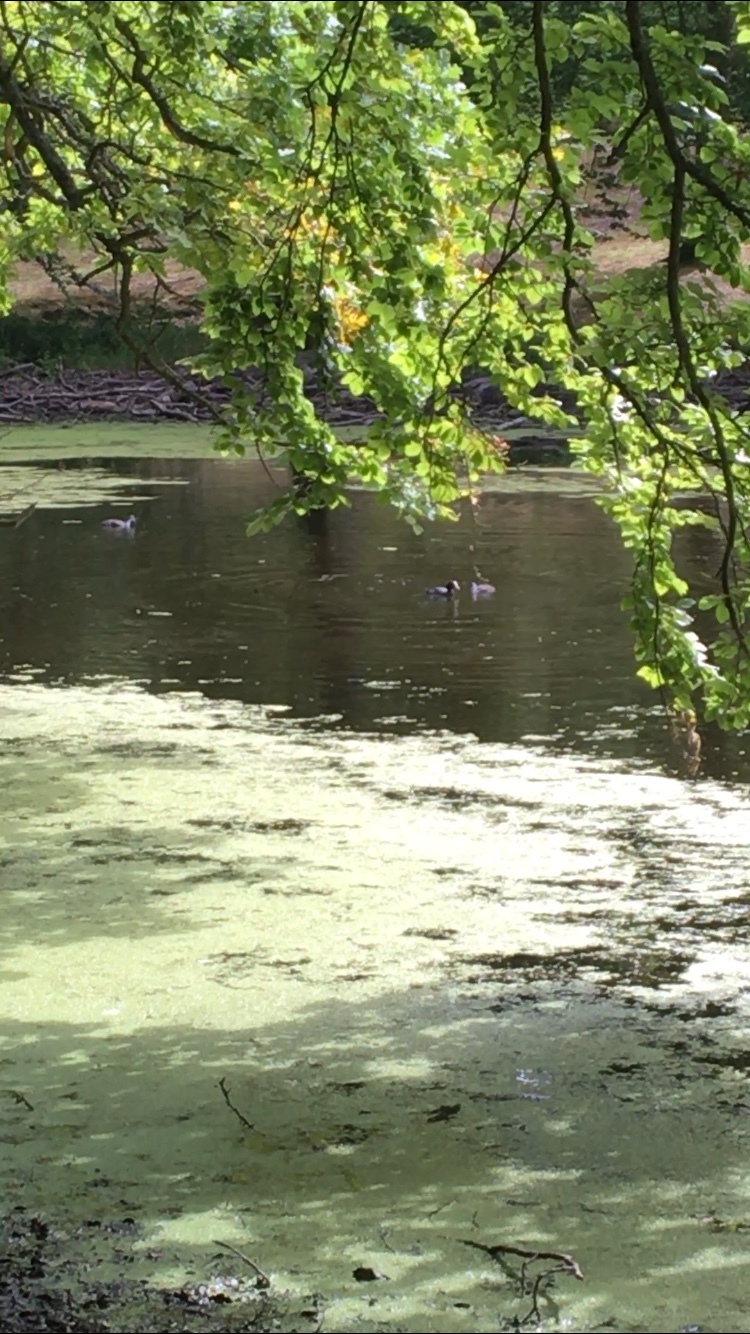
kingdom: Animalia
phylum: Chordata
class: Aves
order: Gruiformes
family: Rallidae
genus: Fulica
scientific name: Fulica atra
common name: Eurasian coot
